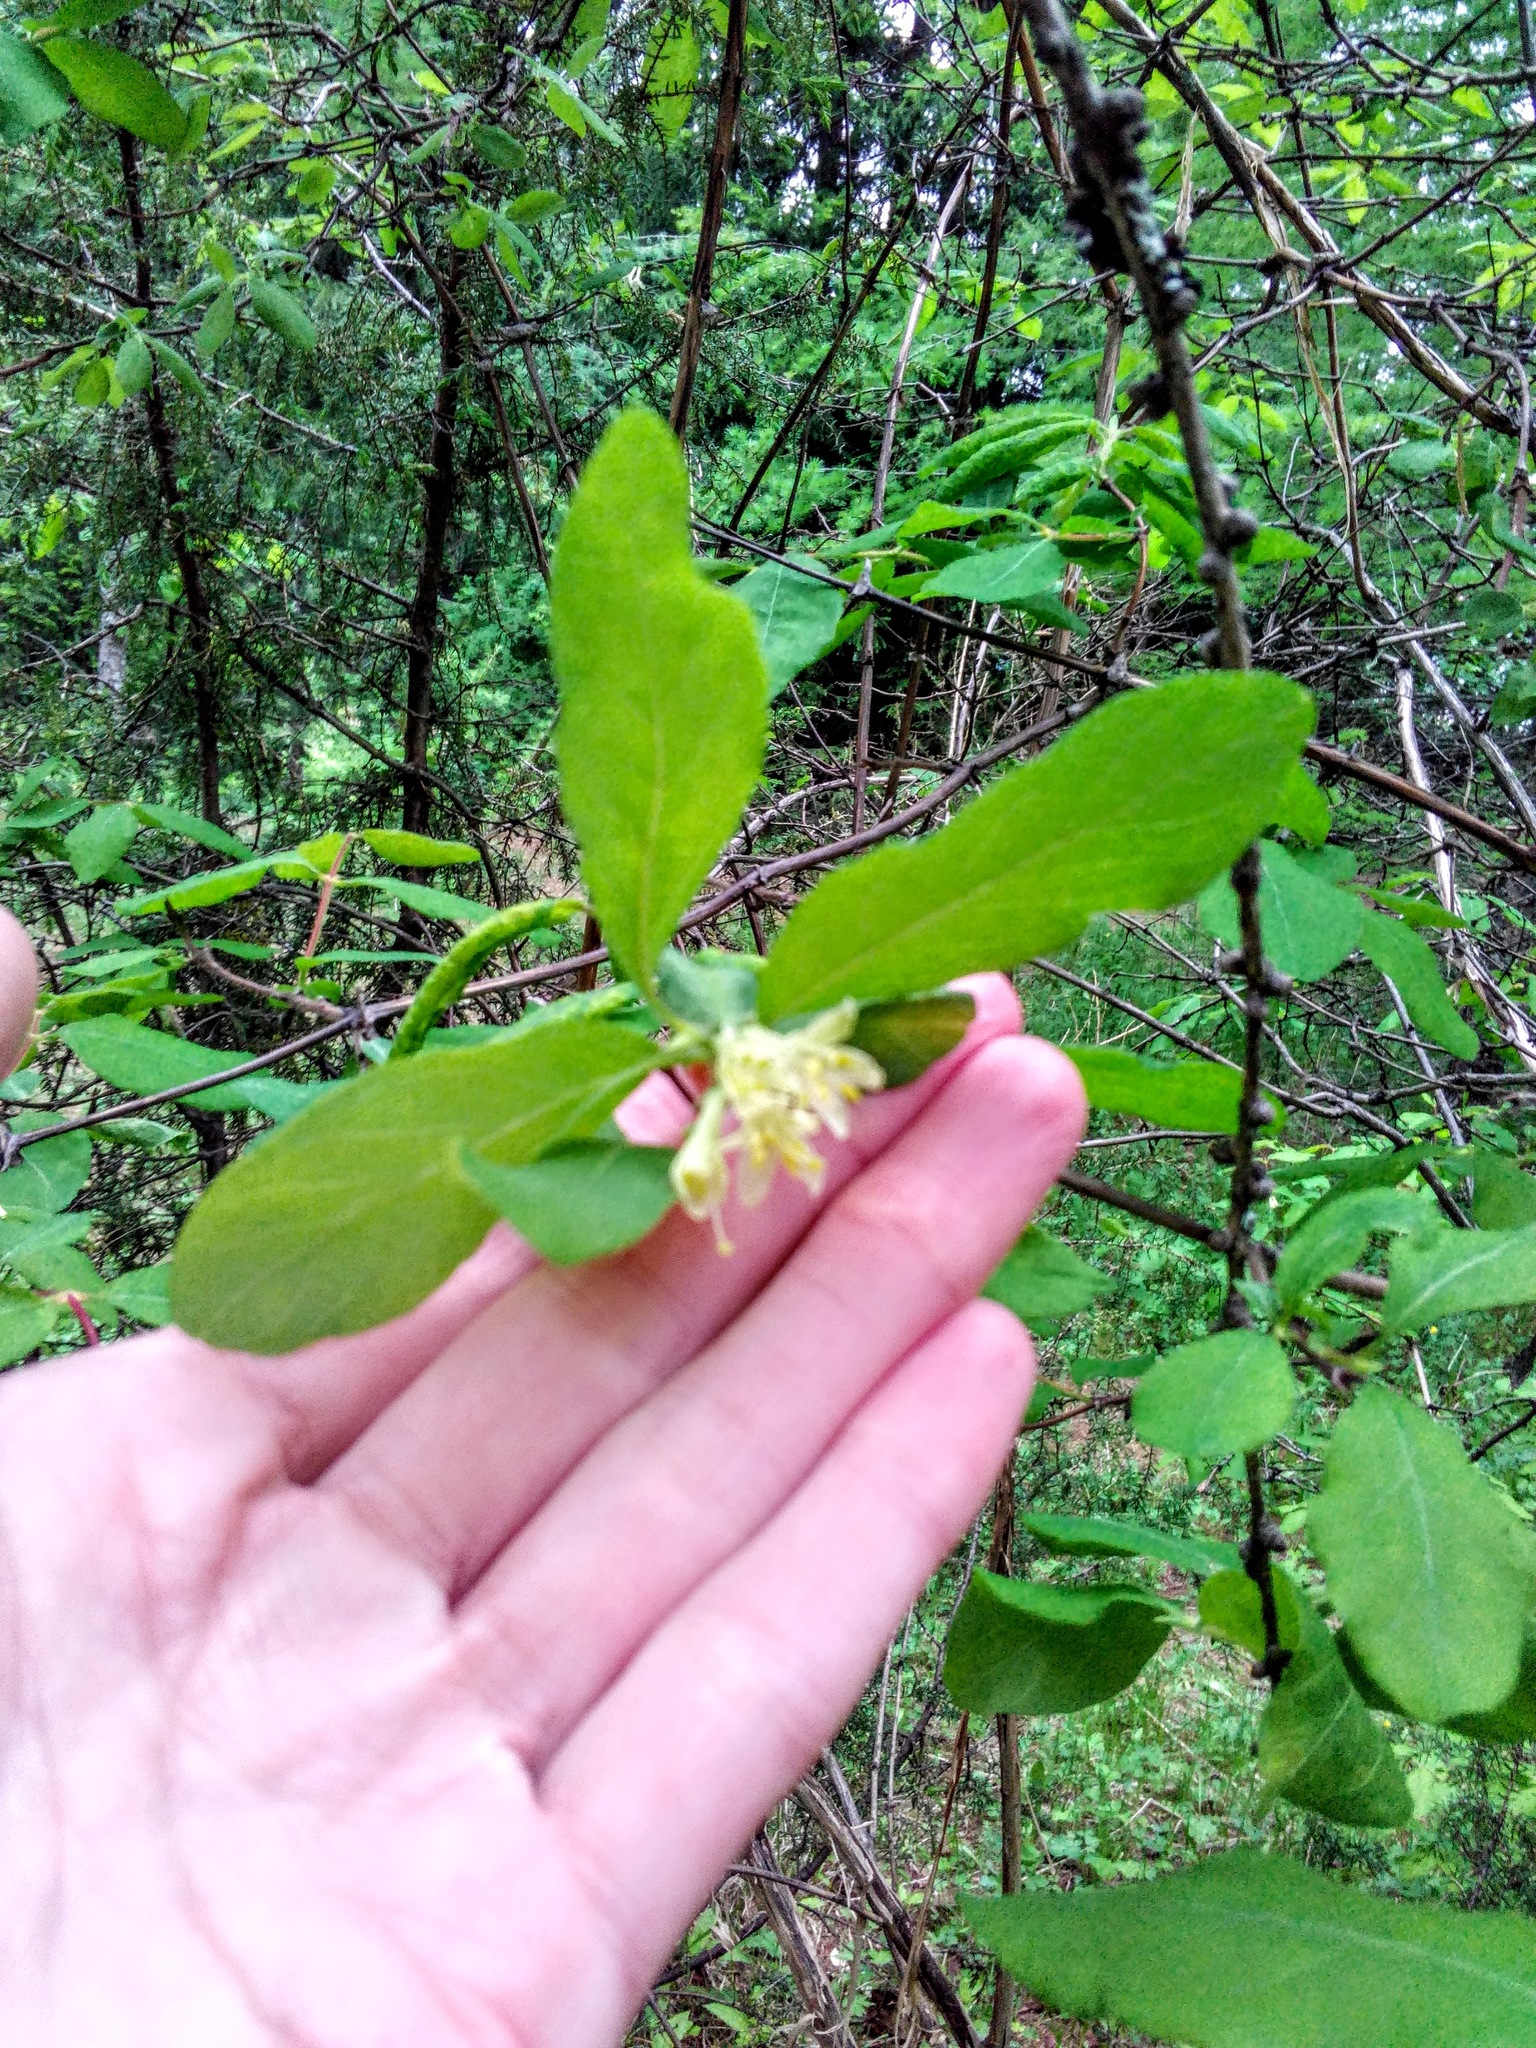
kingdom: Plantae
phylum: Tracheophyta
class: Magnoliopsida
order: Dipsacales
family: Caprifoliaceae
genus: Lonicera
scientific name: Lonicera caerulea
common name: Blue honeysuckle
